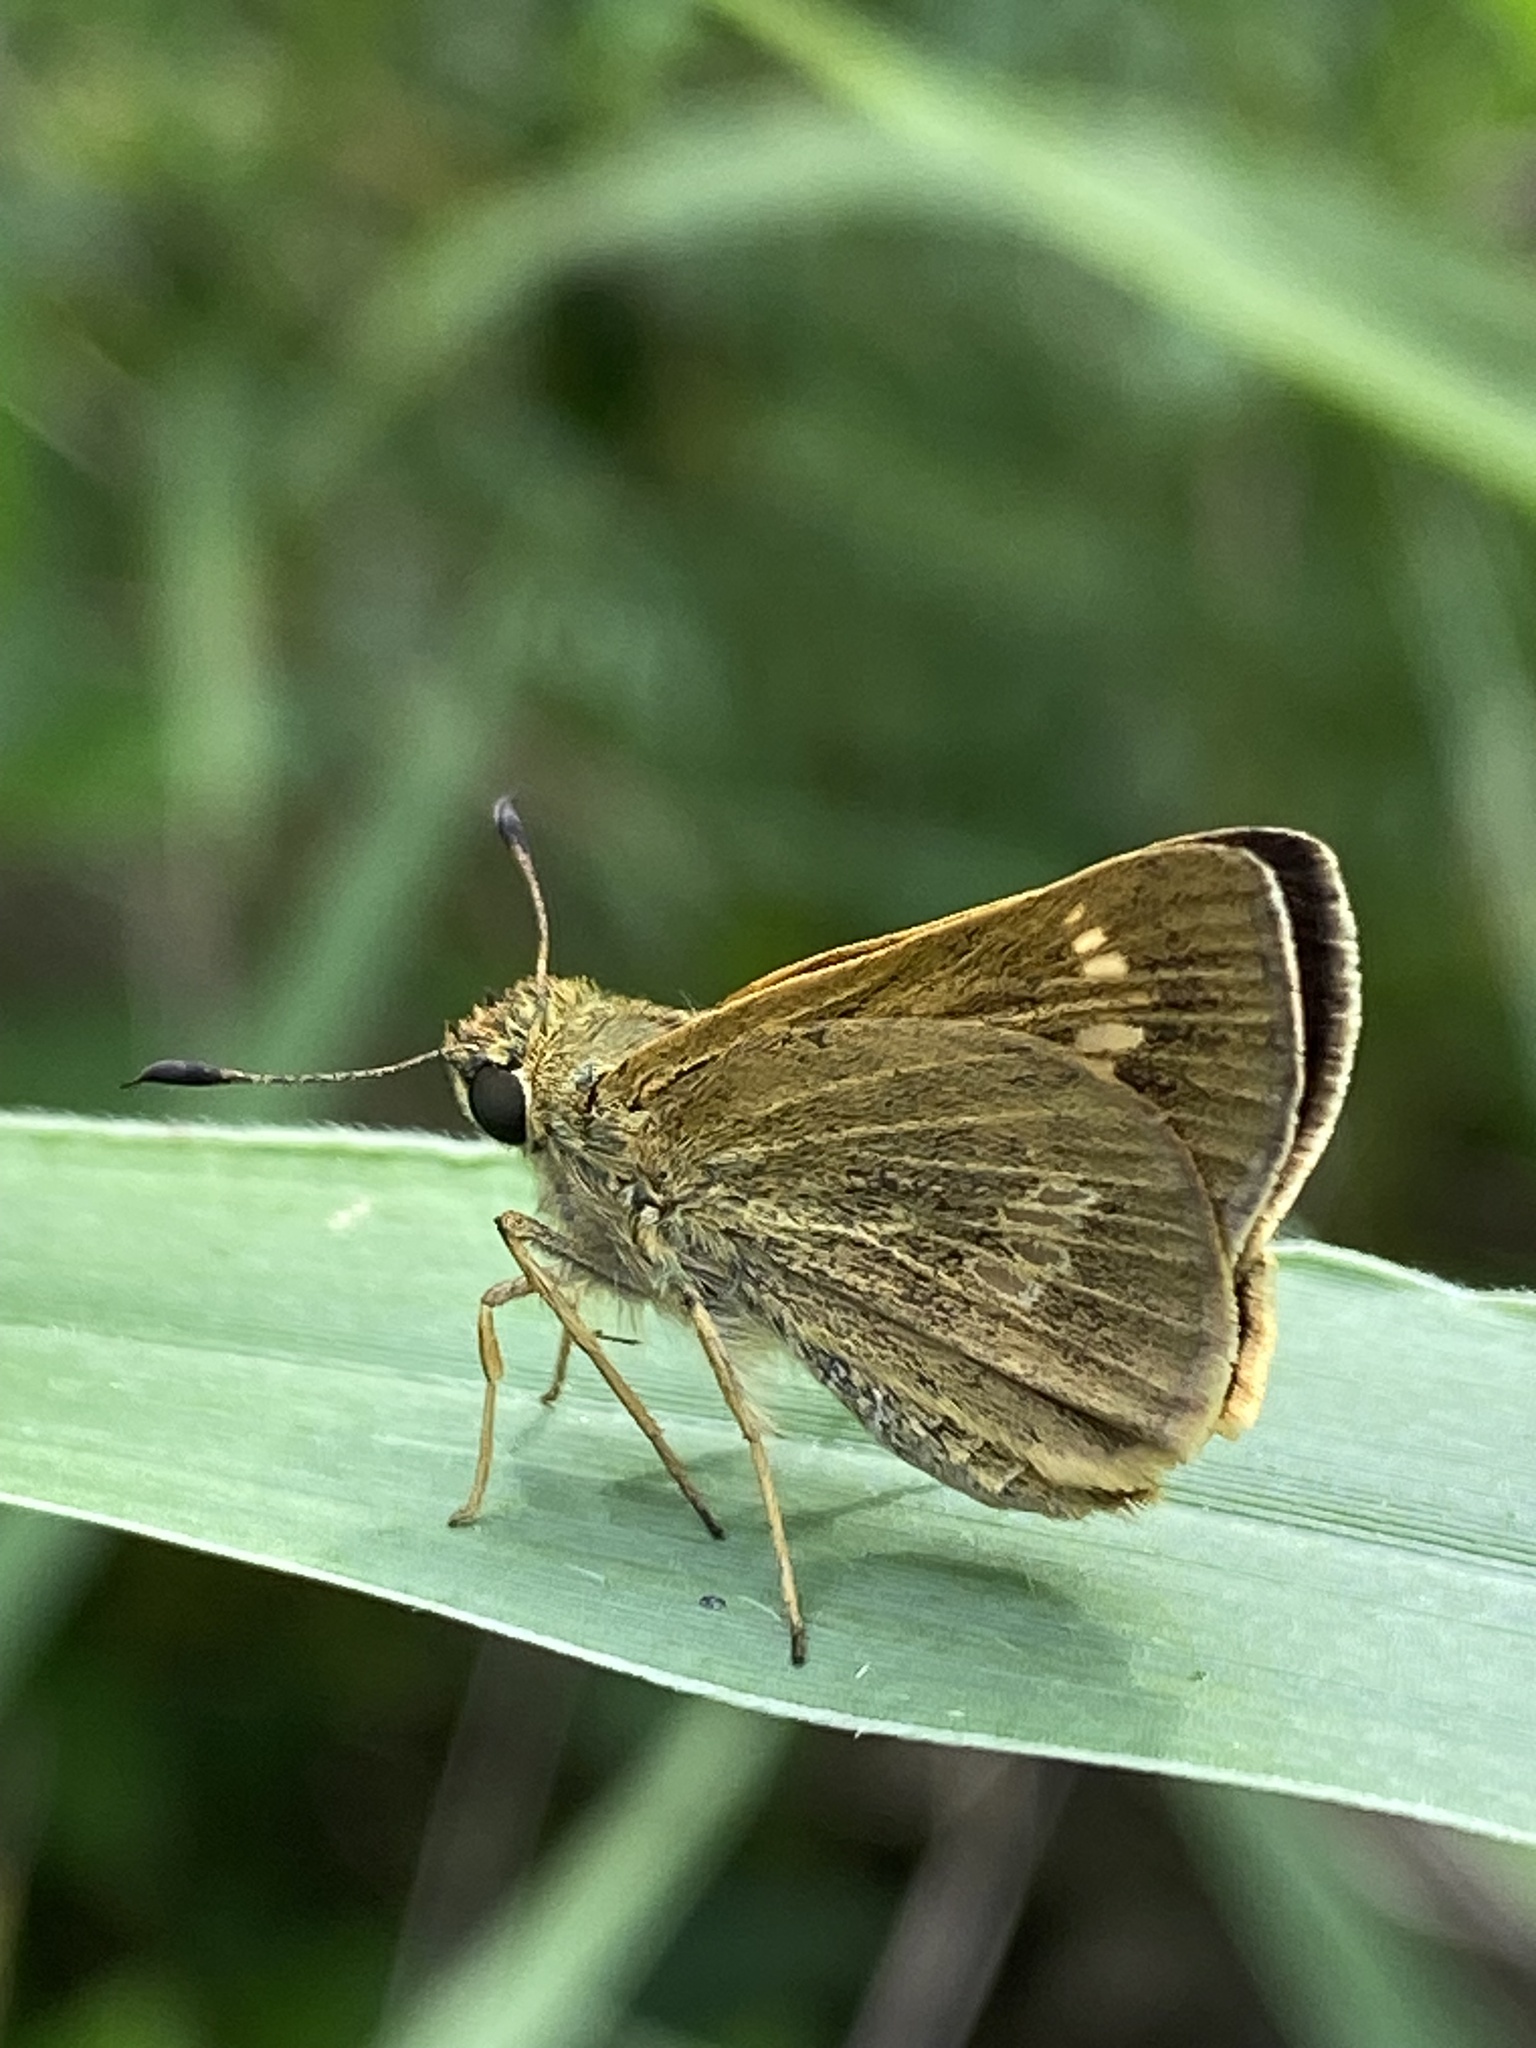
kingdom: Animalia
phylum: Arthropoda
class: Insecta
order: Lepidoptera
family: Hesperiidae
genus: Parnara
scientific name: Parnara amalia
